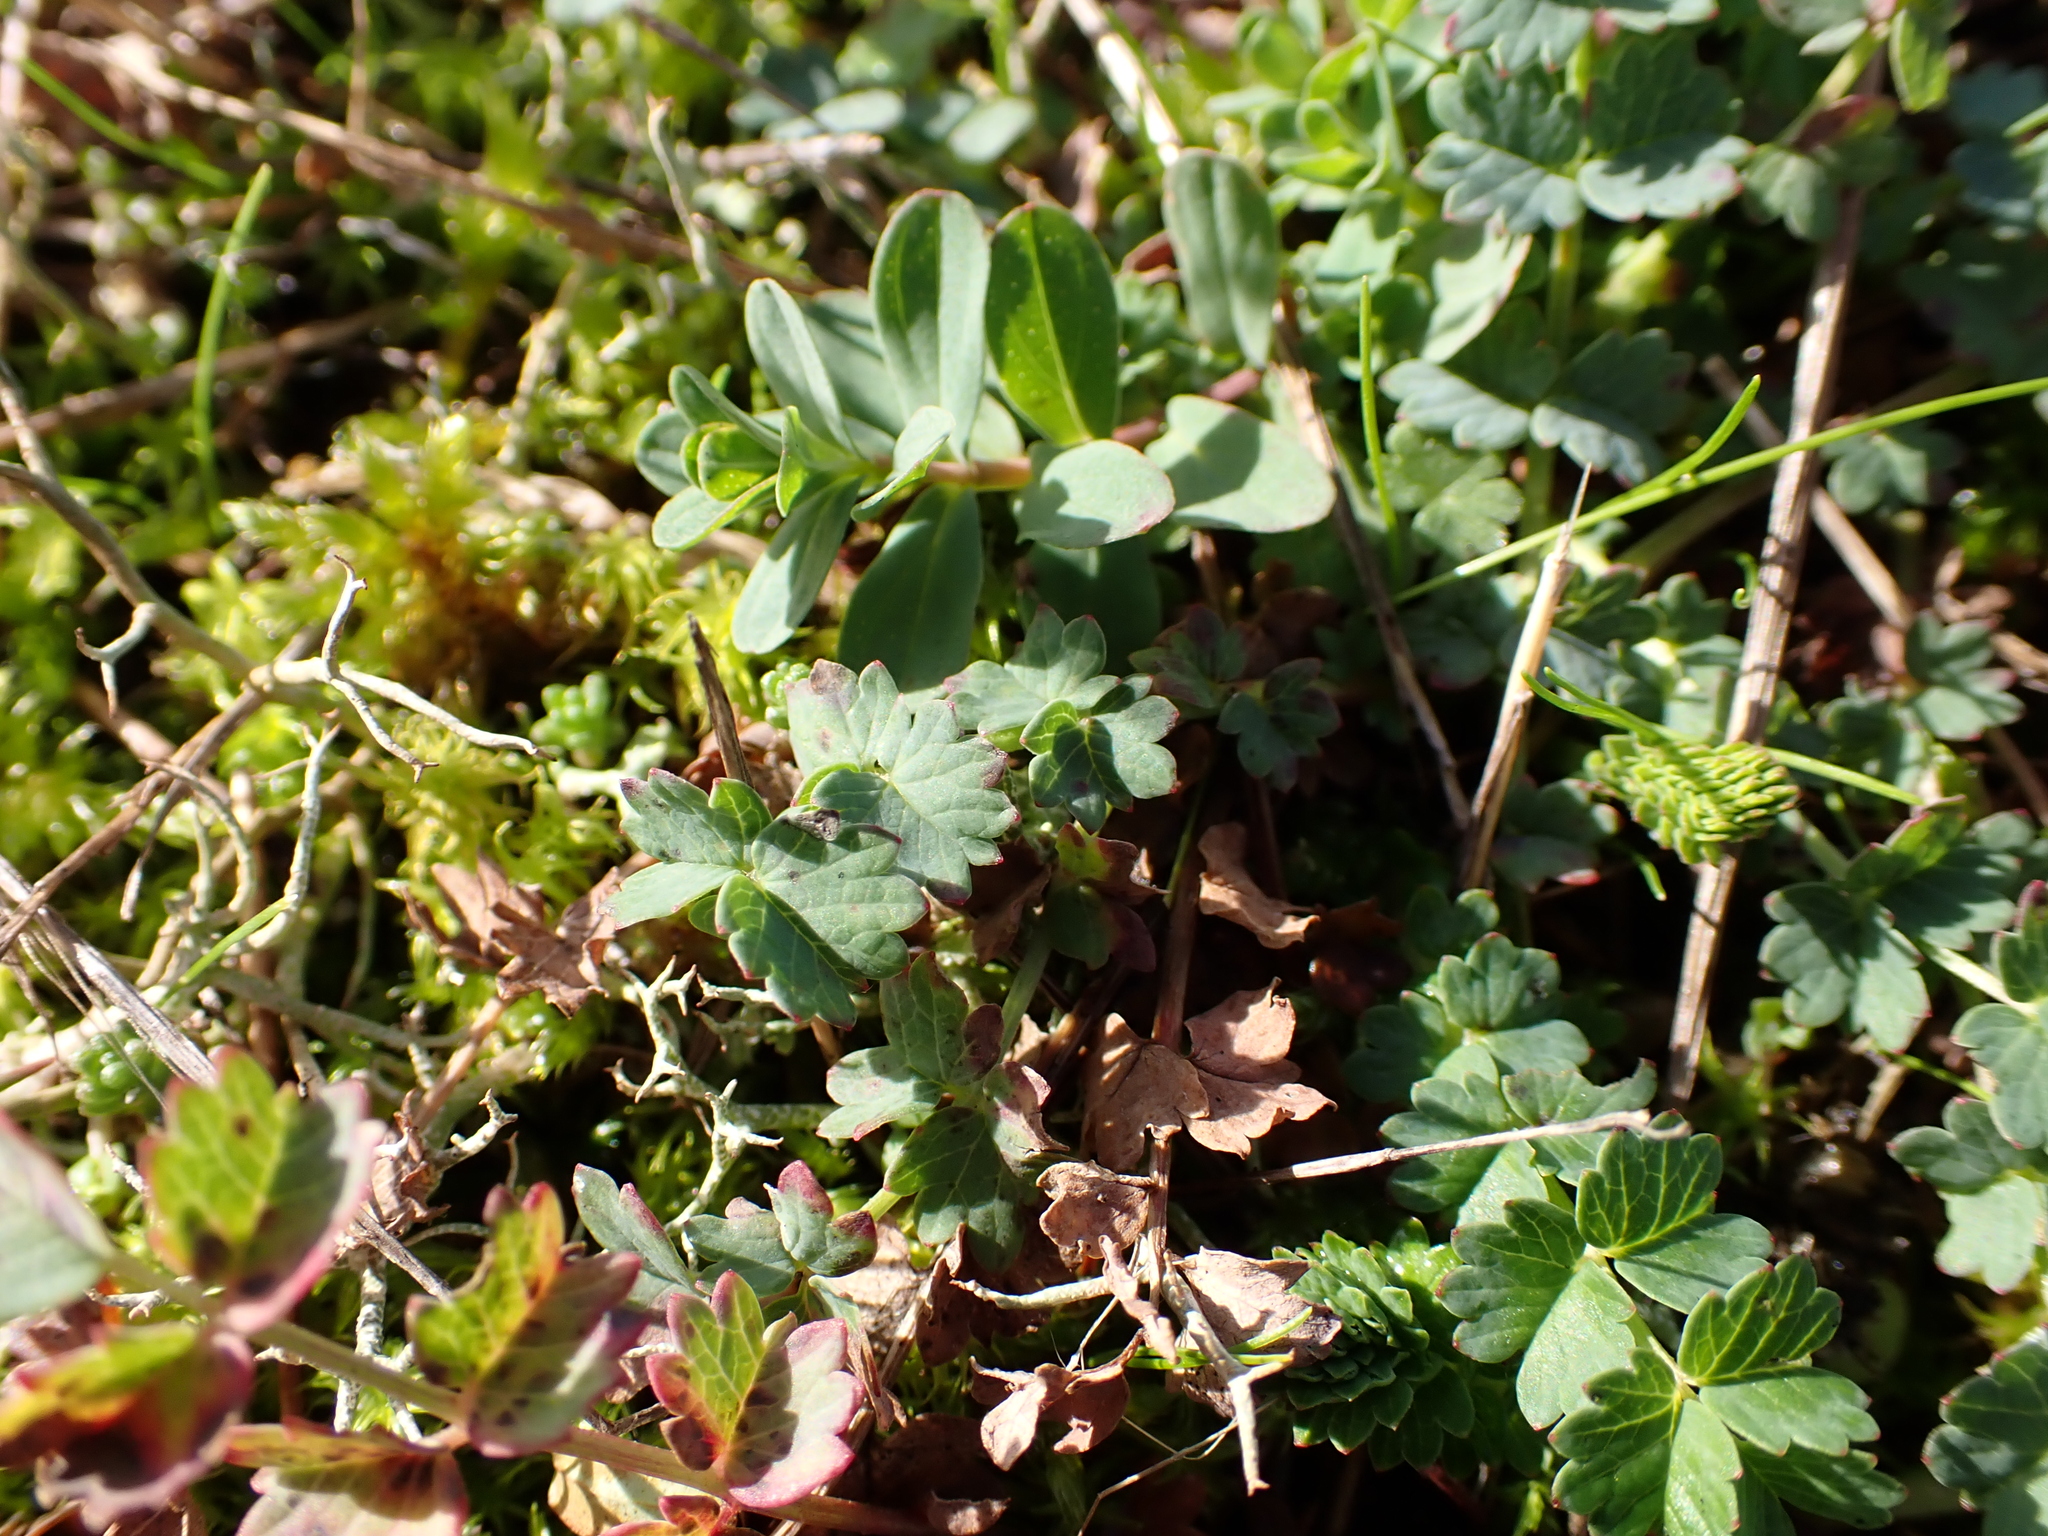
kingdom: Plantae
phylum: Tracheophyta
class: Magnoliopsida
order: Rosales
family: Rosaceae
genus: Poterium
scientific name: Poterium sanguisorba
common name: Salad burnet
